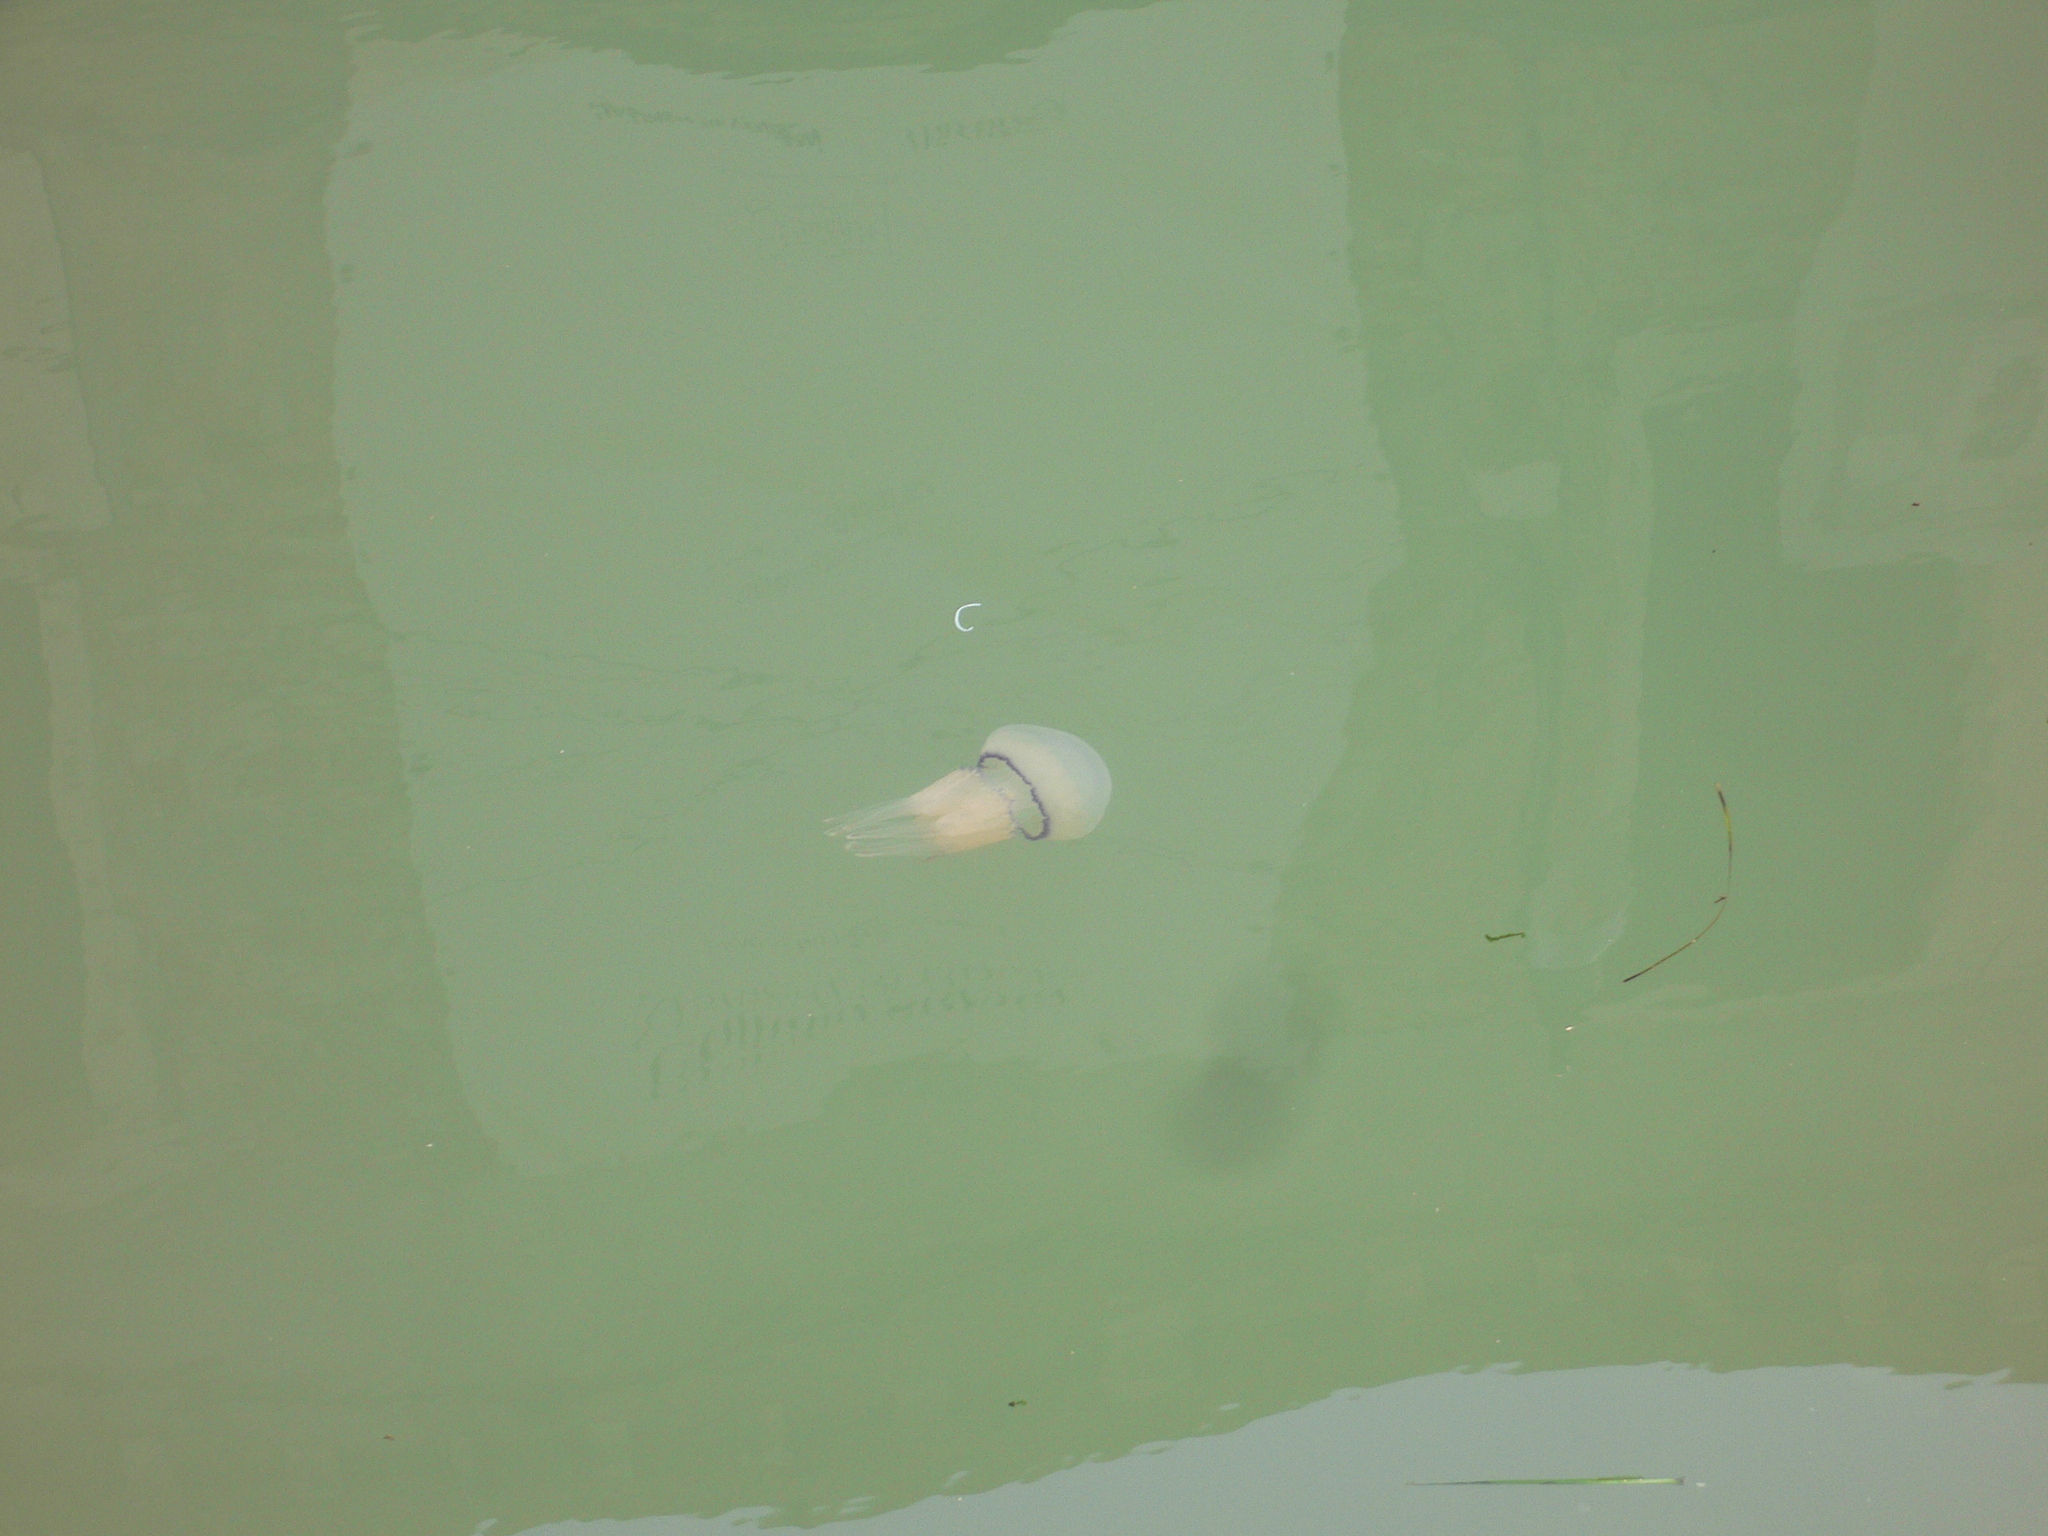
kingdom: Animalia
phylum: Cnidaria
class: Scyphozoa
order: Rhizostomeae
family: Rhizostomatidae
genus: Rhizostoma
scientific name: Rhizostoma pulmo
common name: Barrel jellyfish
